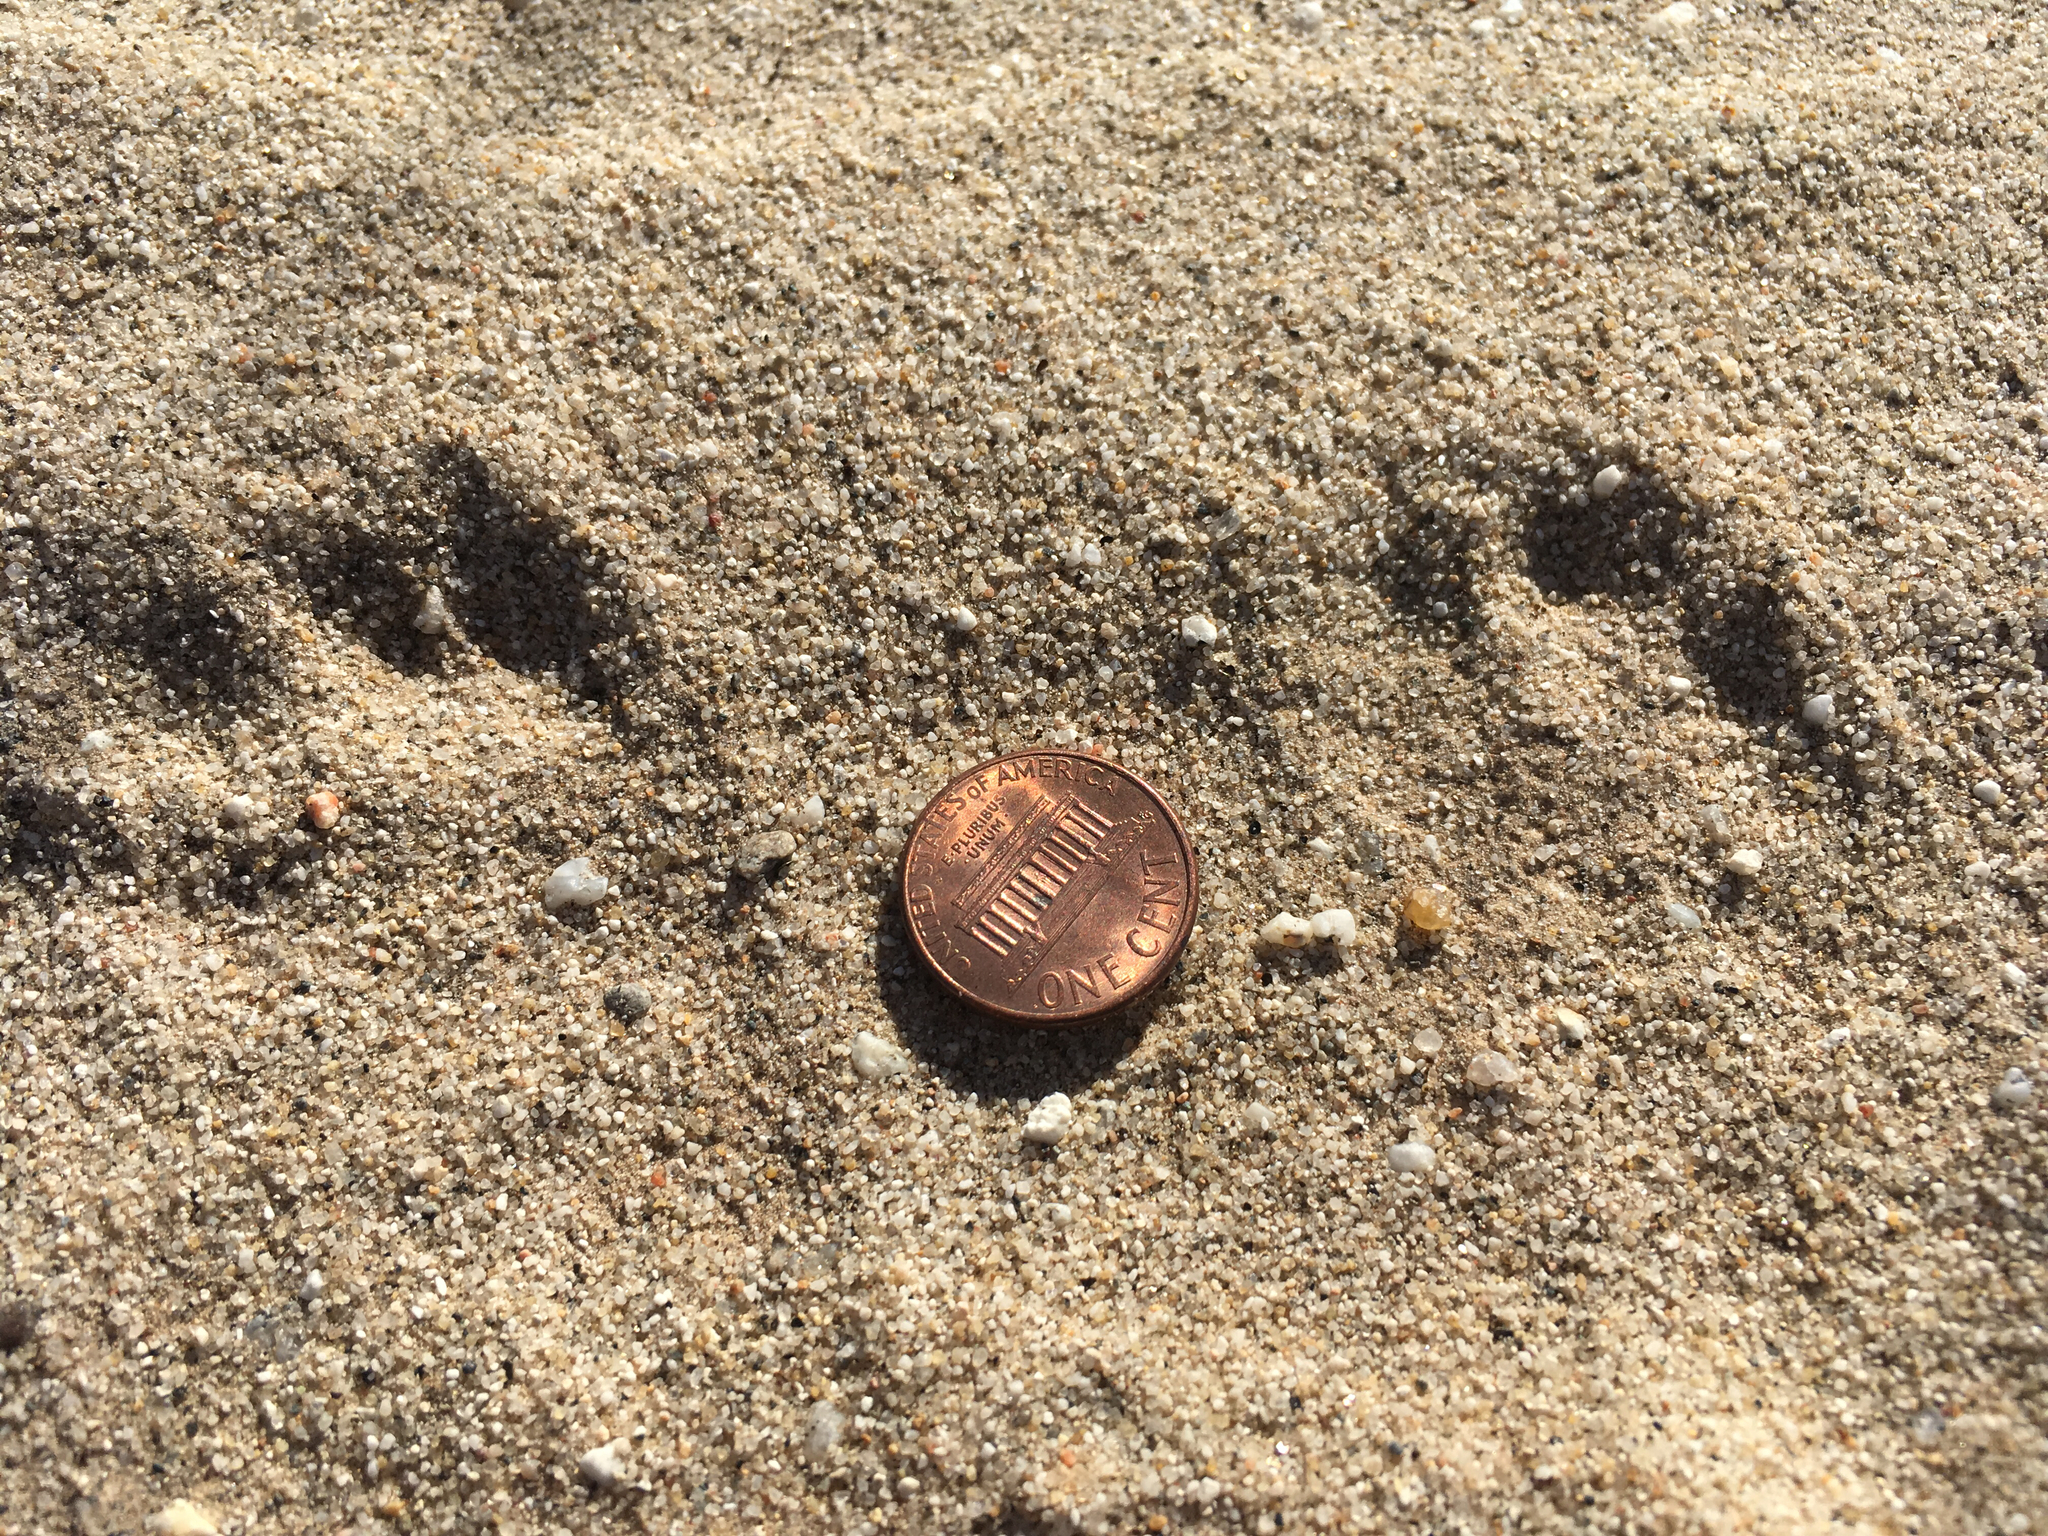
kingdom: Animalia
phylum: Chordata
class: Mammalia
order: Lagomorpha
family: Leporidae
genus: Lepus
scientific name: Lepus californicus
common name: Black-tailed jackrabbit
